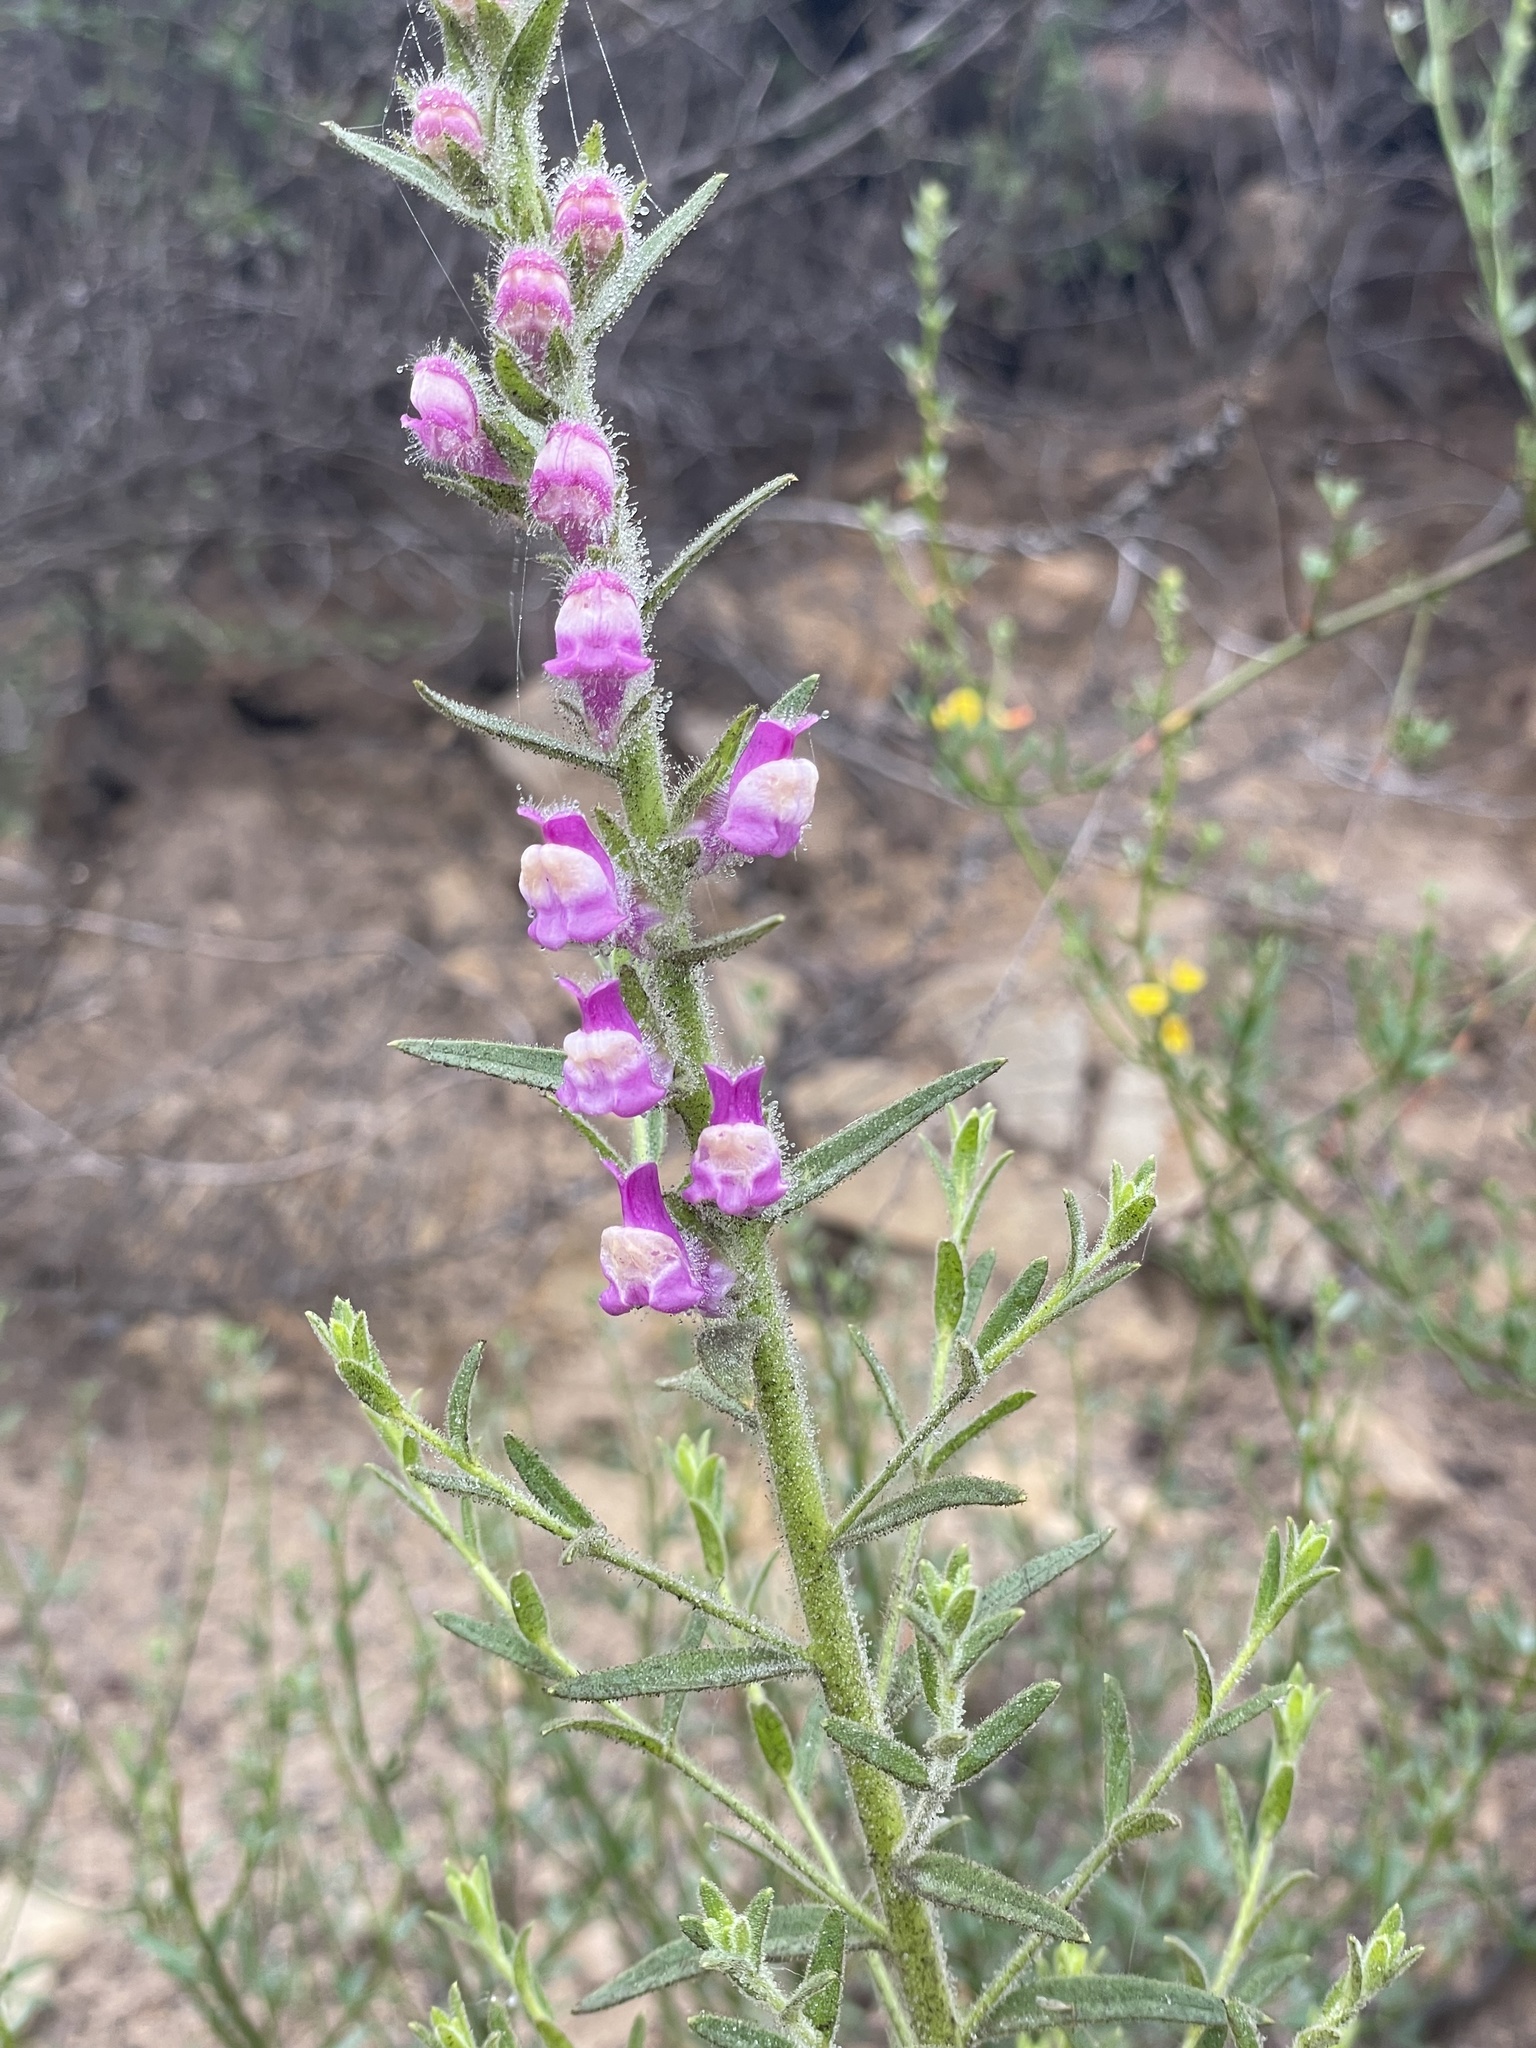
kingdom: Plantae
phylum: Tracheophyta
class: Magnoliopsida
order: Lamiales
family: Plantaginaceae
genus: Sairocarpus
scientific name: Sairocarpus multiflorus
